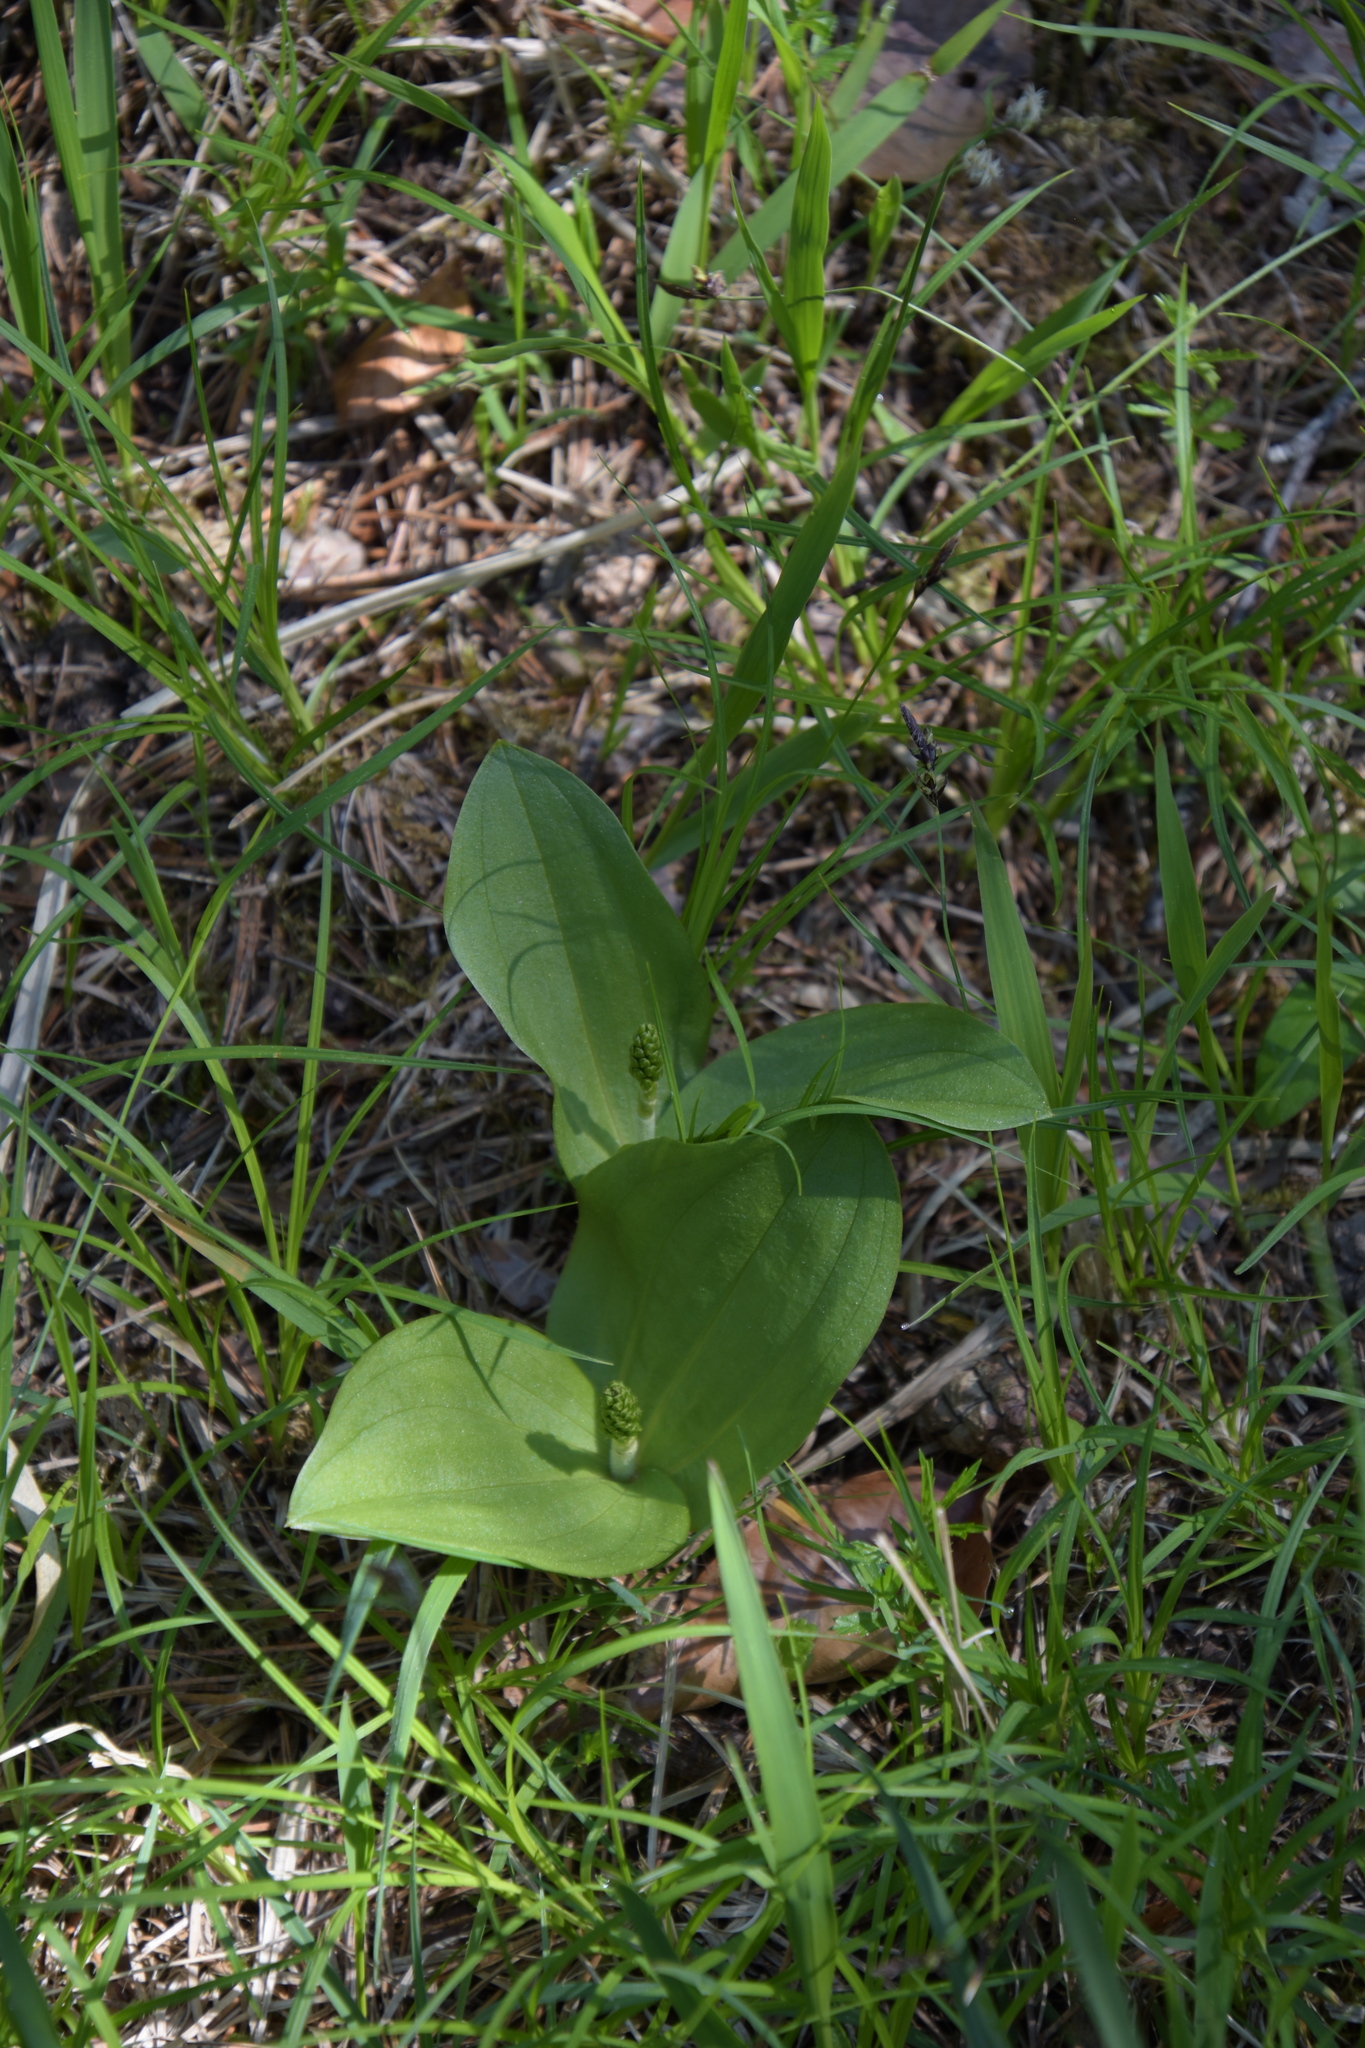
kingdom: Plantae
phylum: Tracheophyta
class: Liliopsida
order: Asparagales
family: Orchidaceae
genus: Neottia
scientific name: Neottia ovata
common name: Common twayblade
